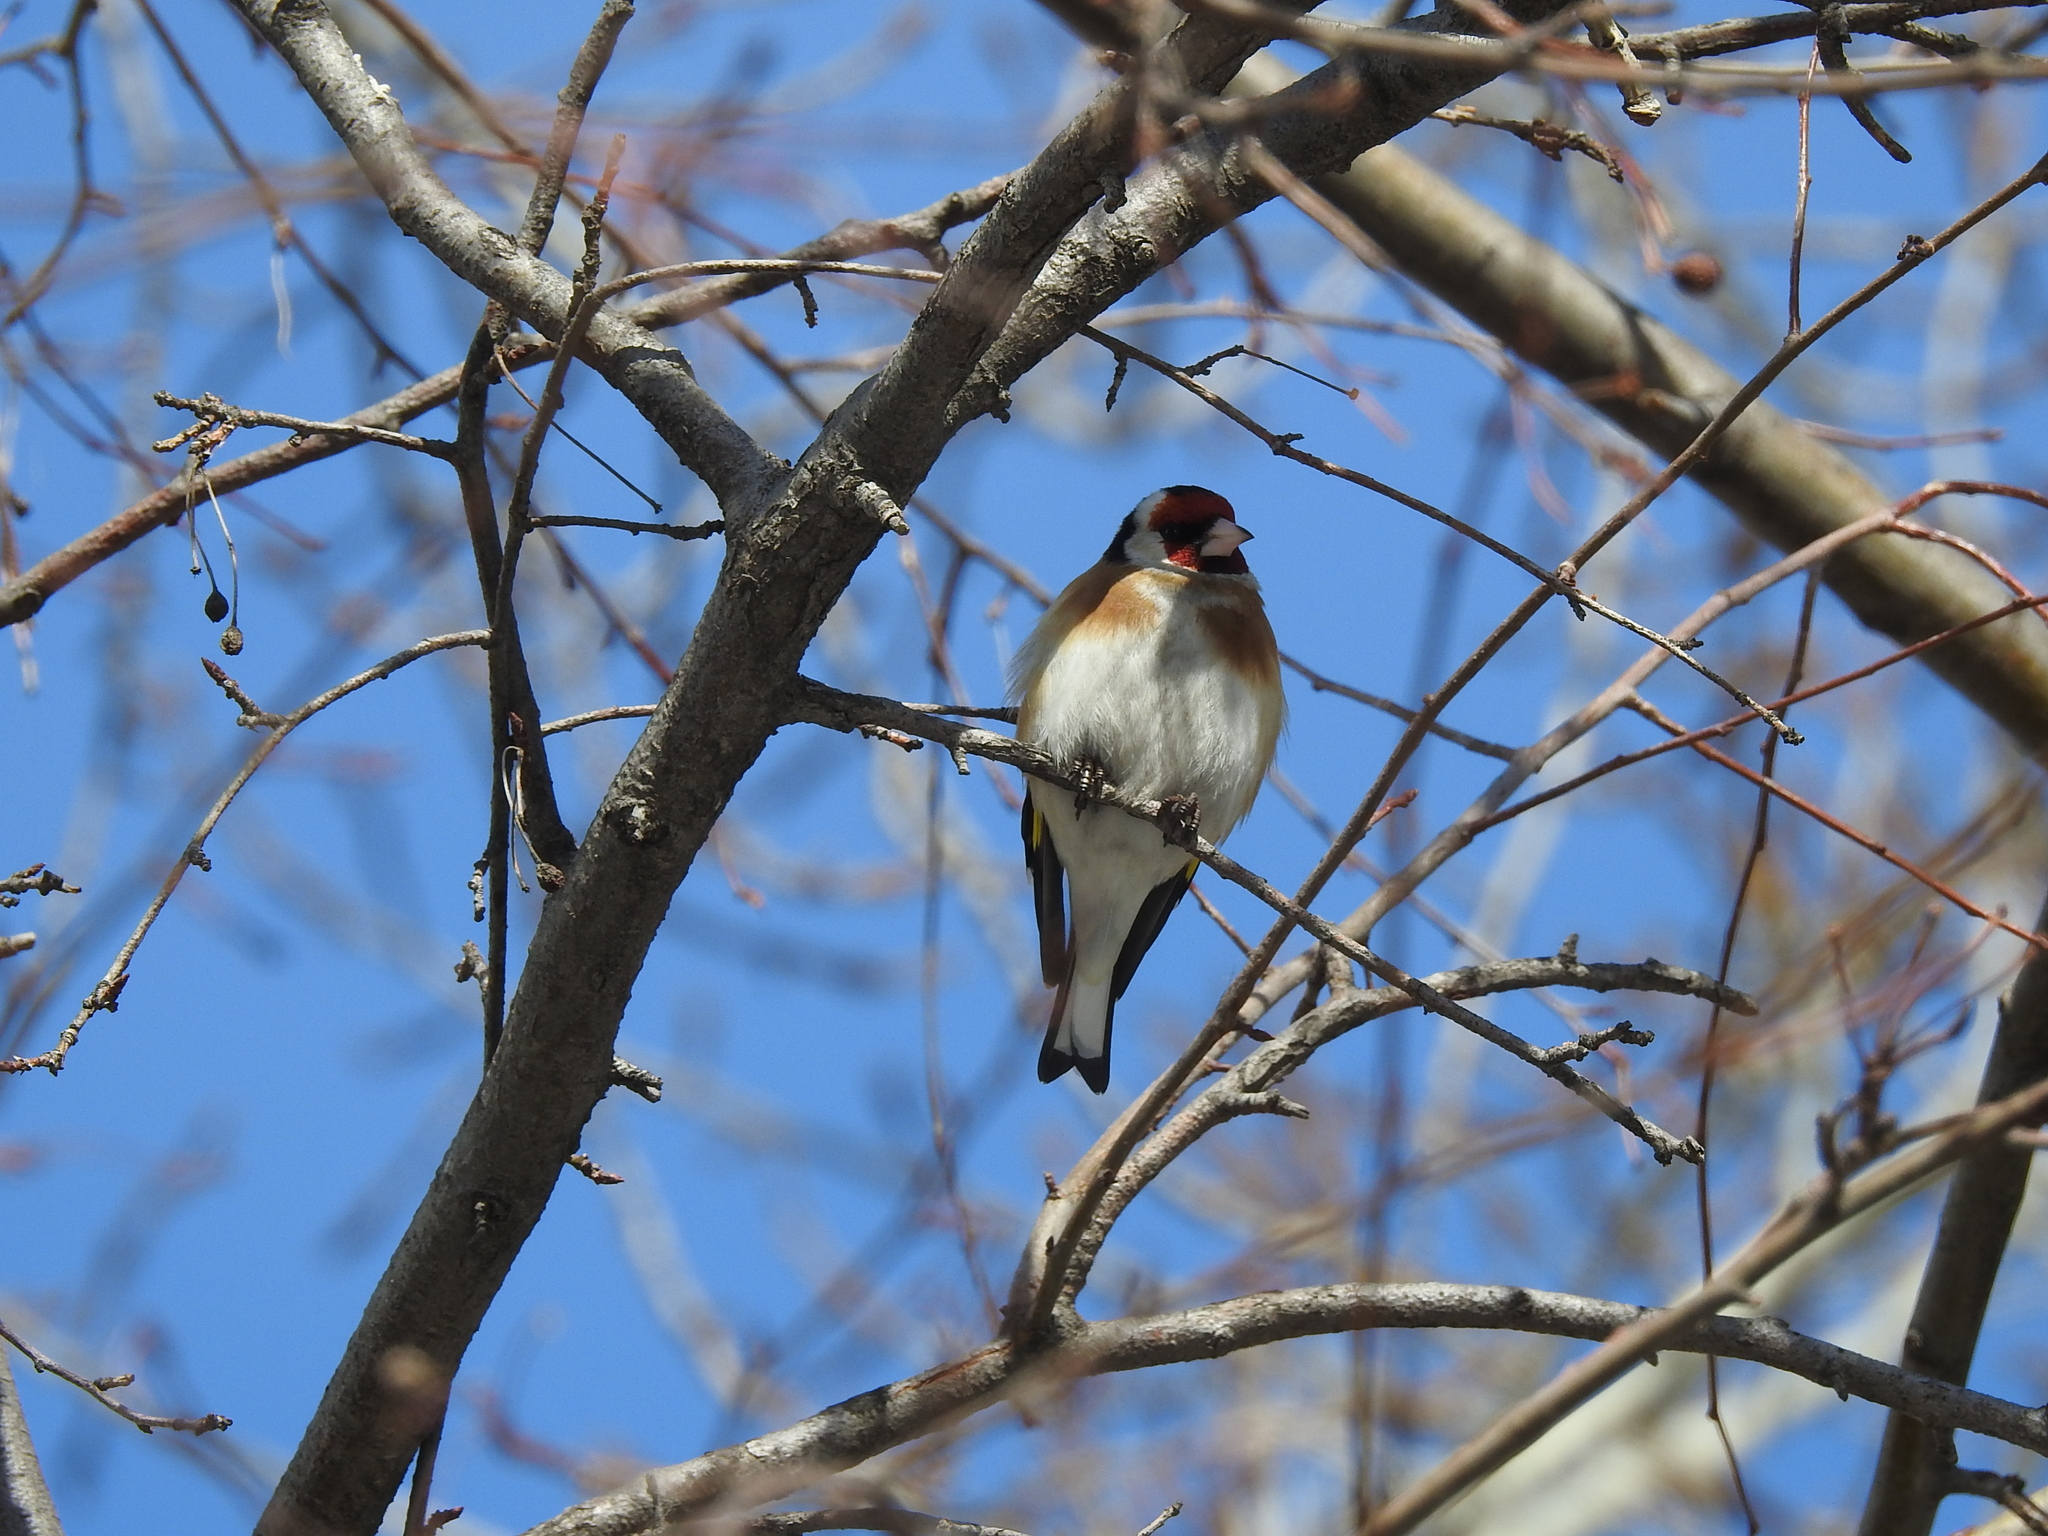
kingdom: Animalia
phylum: Chordata
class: Aves
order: Passeriformes
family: Fringillidae
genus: Carduelis
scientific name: Carduelis carduelis
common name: European goldfinch
